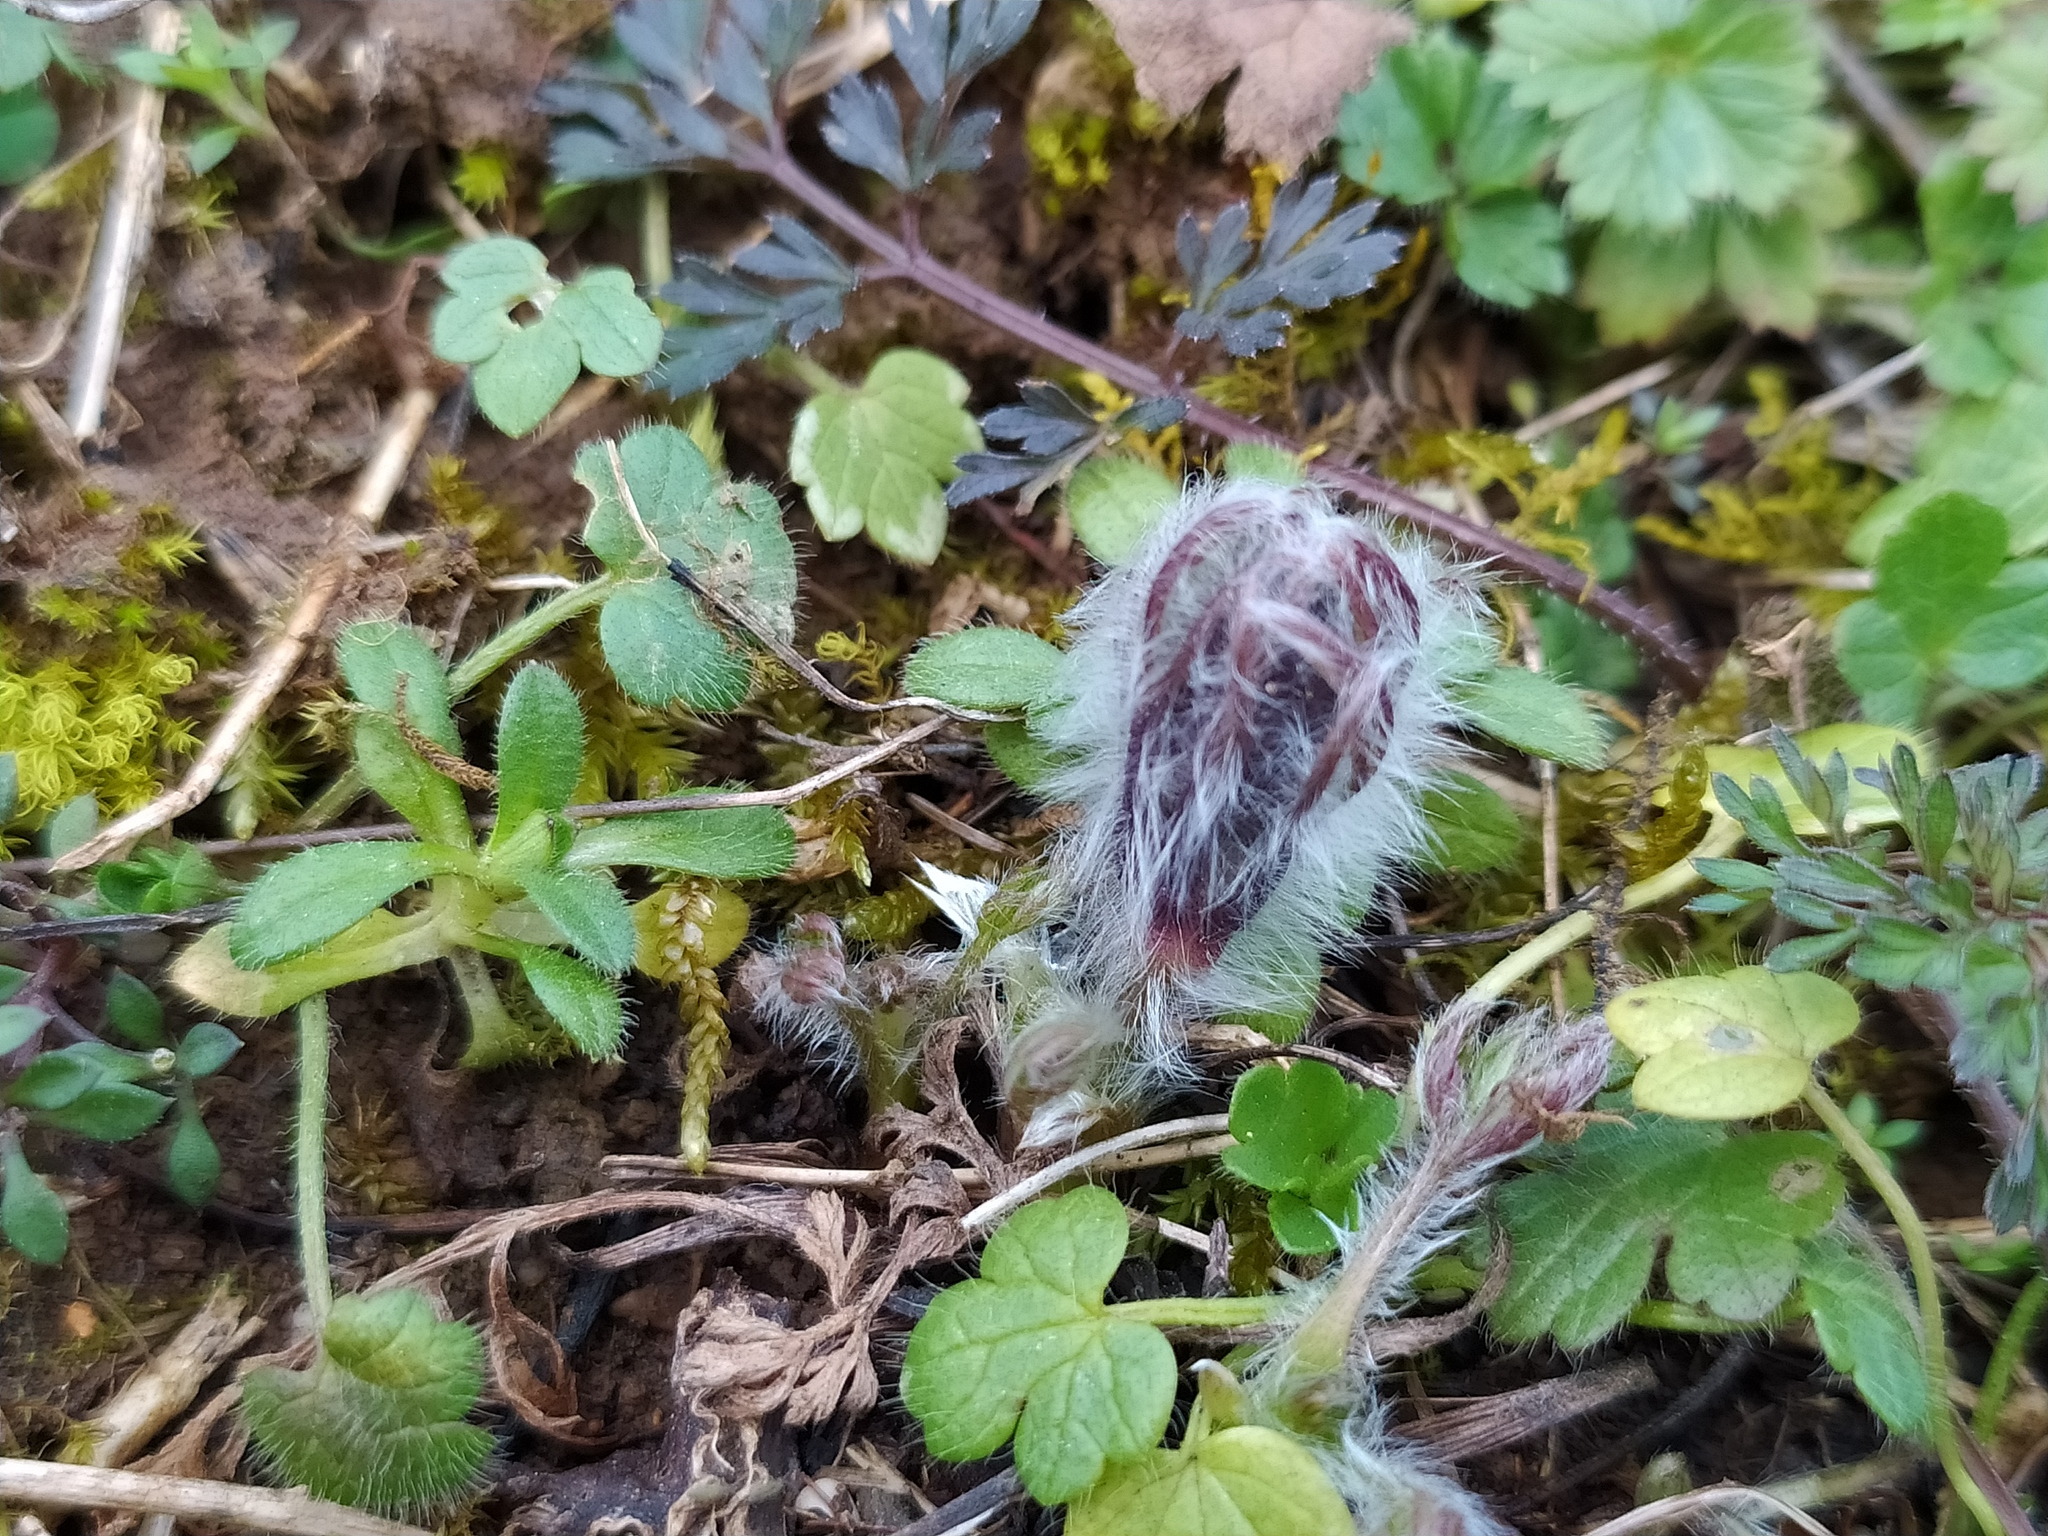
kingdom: Plantae
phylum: Tracheophyta
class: Magnoliopsida
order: Ranunculales
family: Ranunculaceae
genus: Pulsatilla
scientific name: Pulsatilla vulgaris
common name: Pasqueflower
